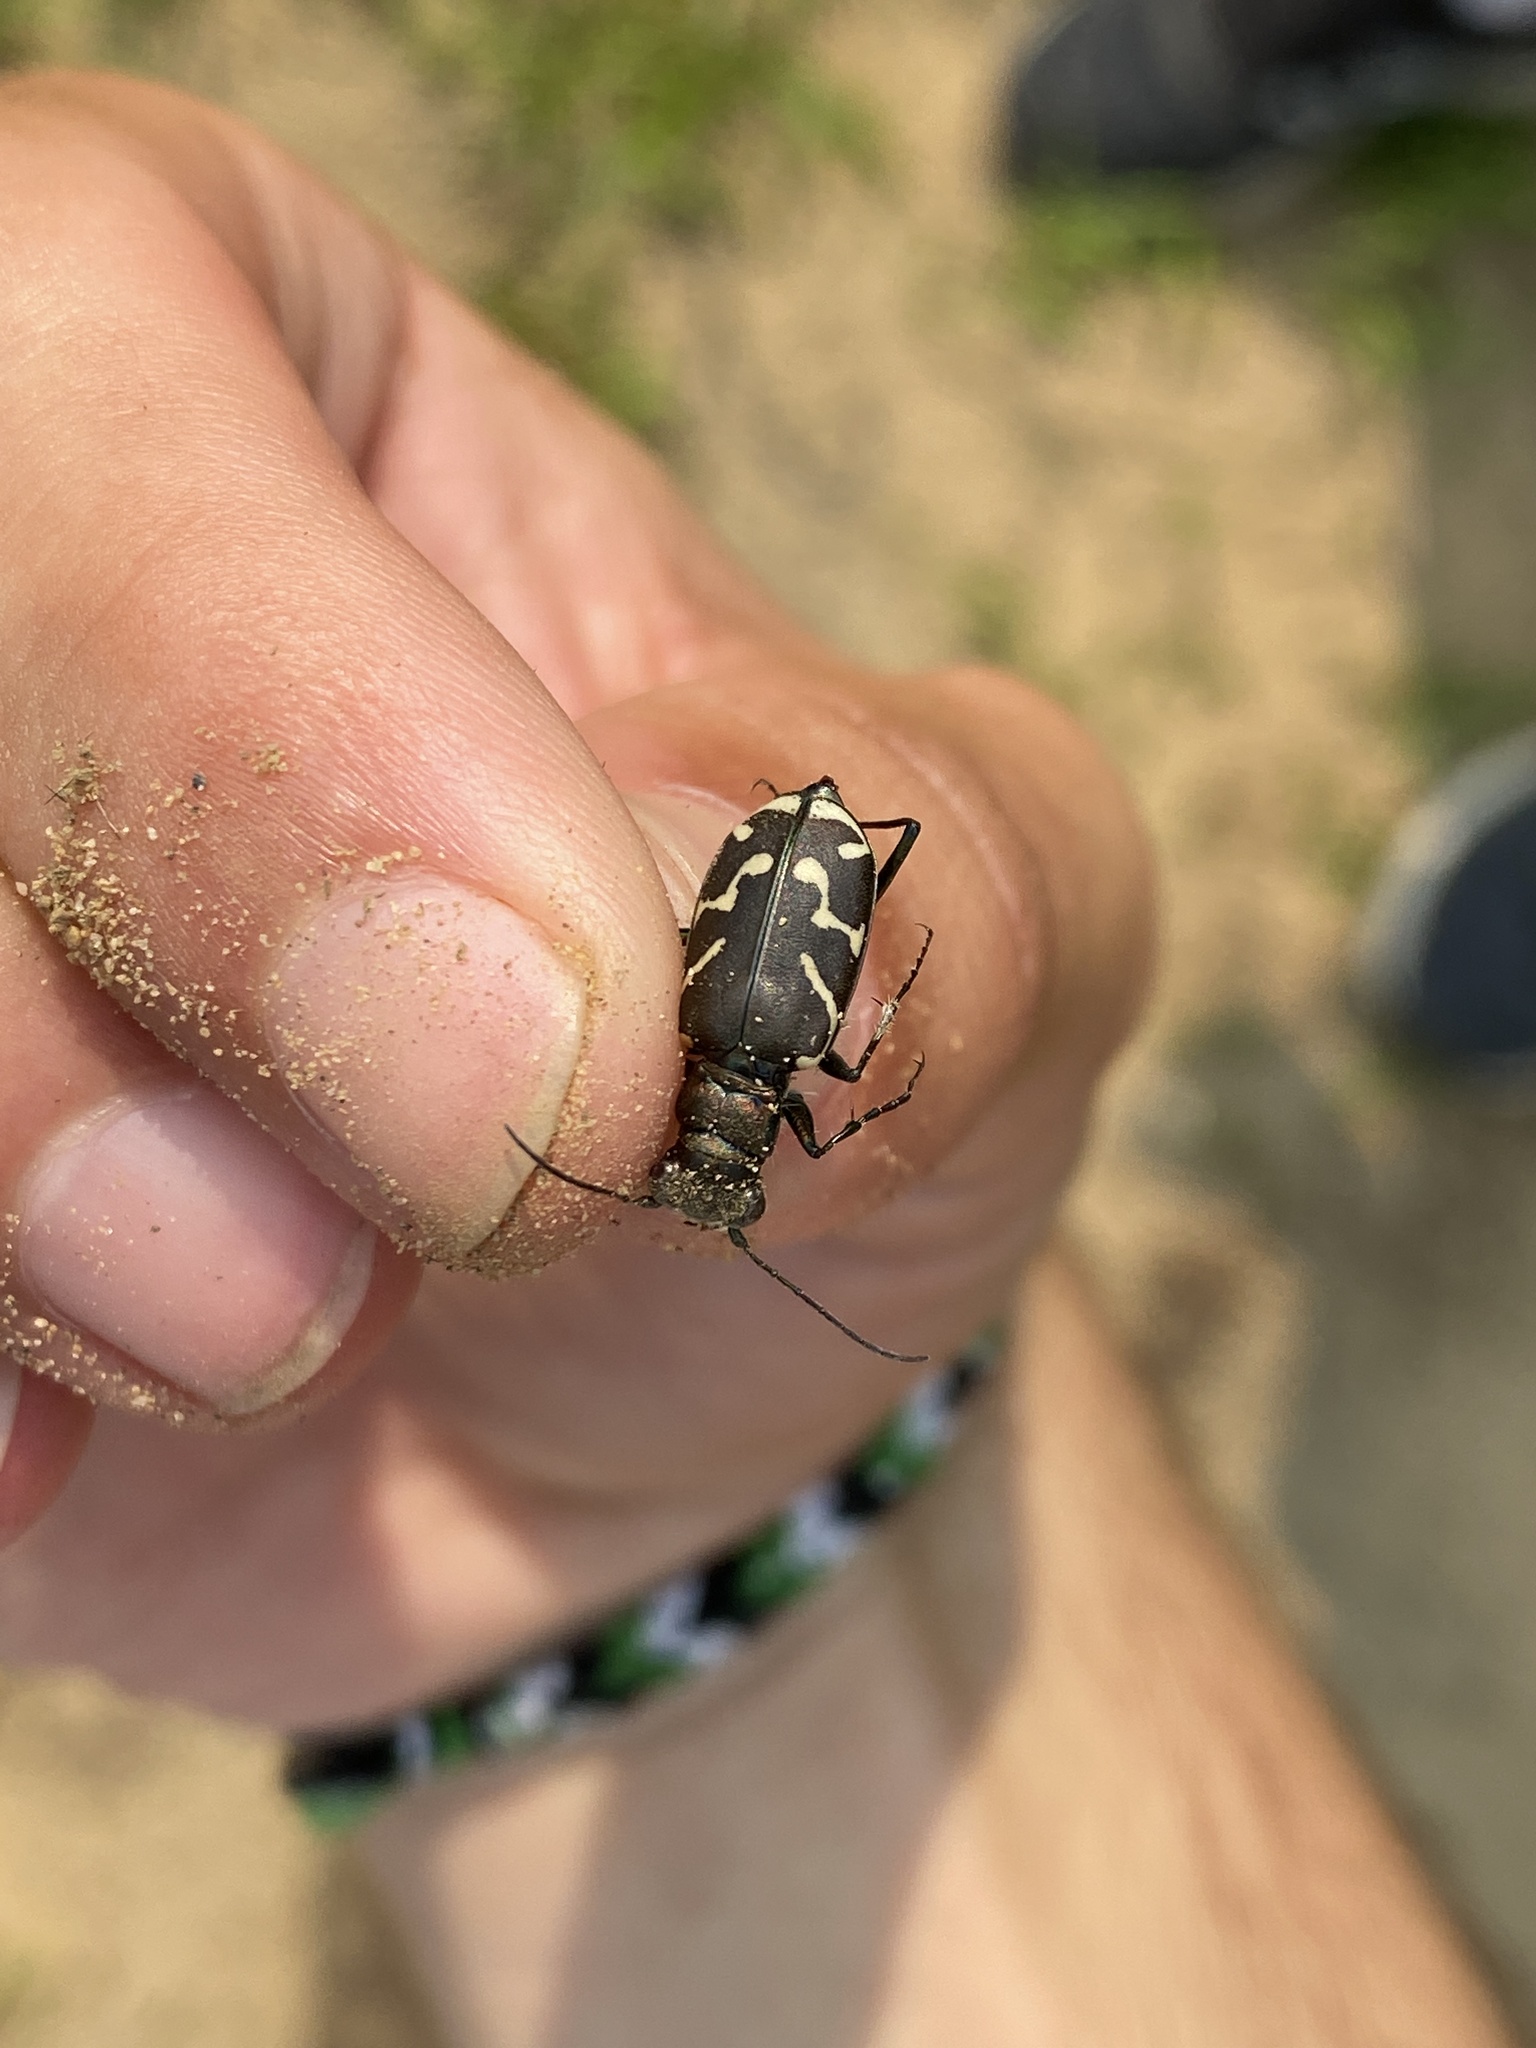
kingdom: Animalia
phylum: Arthropoda
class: Insecta
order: Coleoptera
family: Carabidae
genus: Cicindela
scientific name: Cicindela tranquebarica
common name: Oblique-lined tiger beetle
